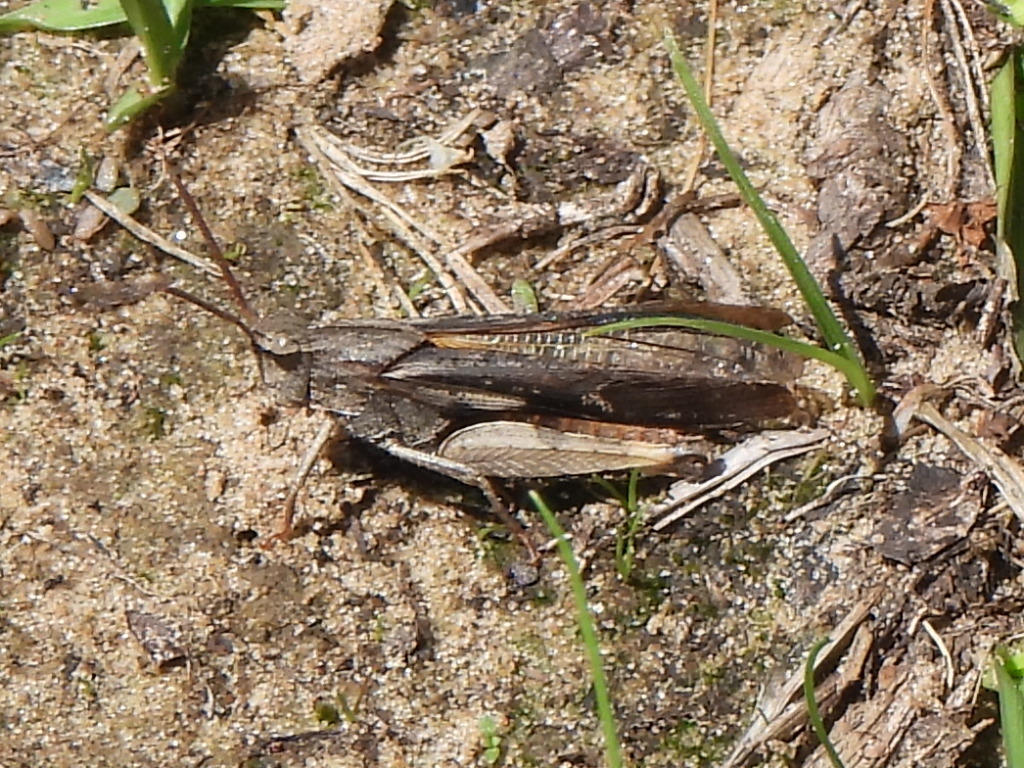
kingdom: Animalia
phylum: Arthropoda
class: Insecta
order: Orthoptera
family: Acrididae
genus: Chortophaga
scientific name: Chortophaga viridifasciata
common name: Green-striped grasshopper
